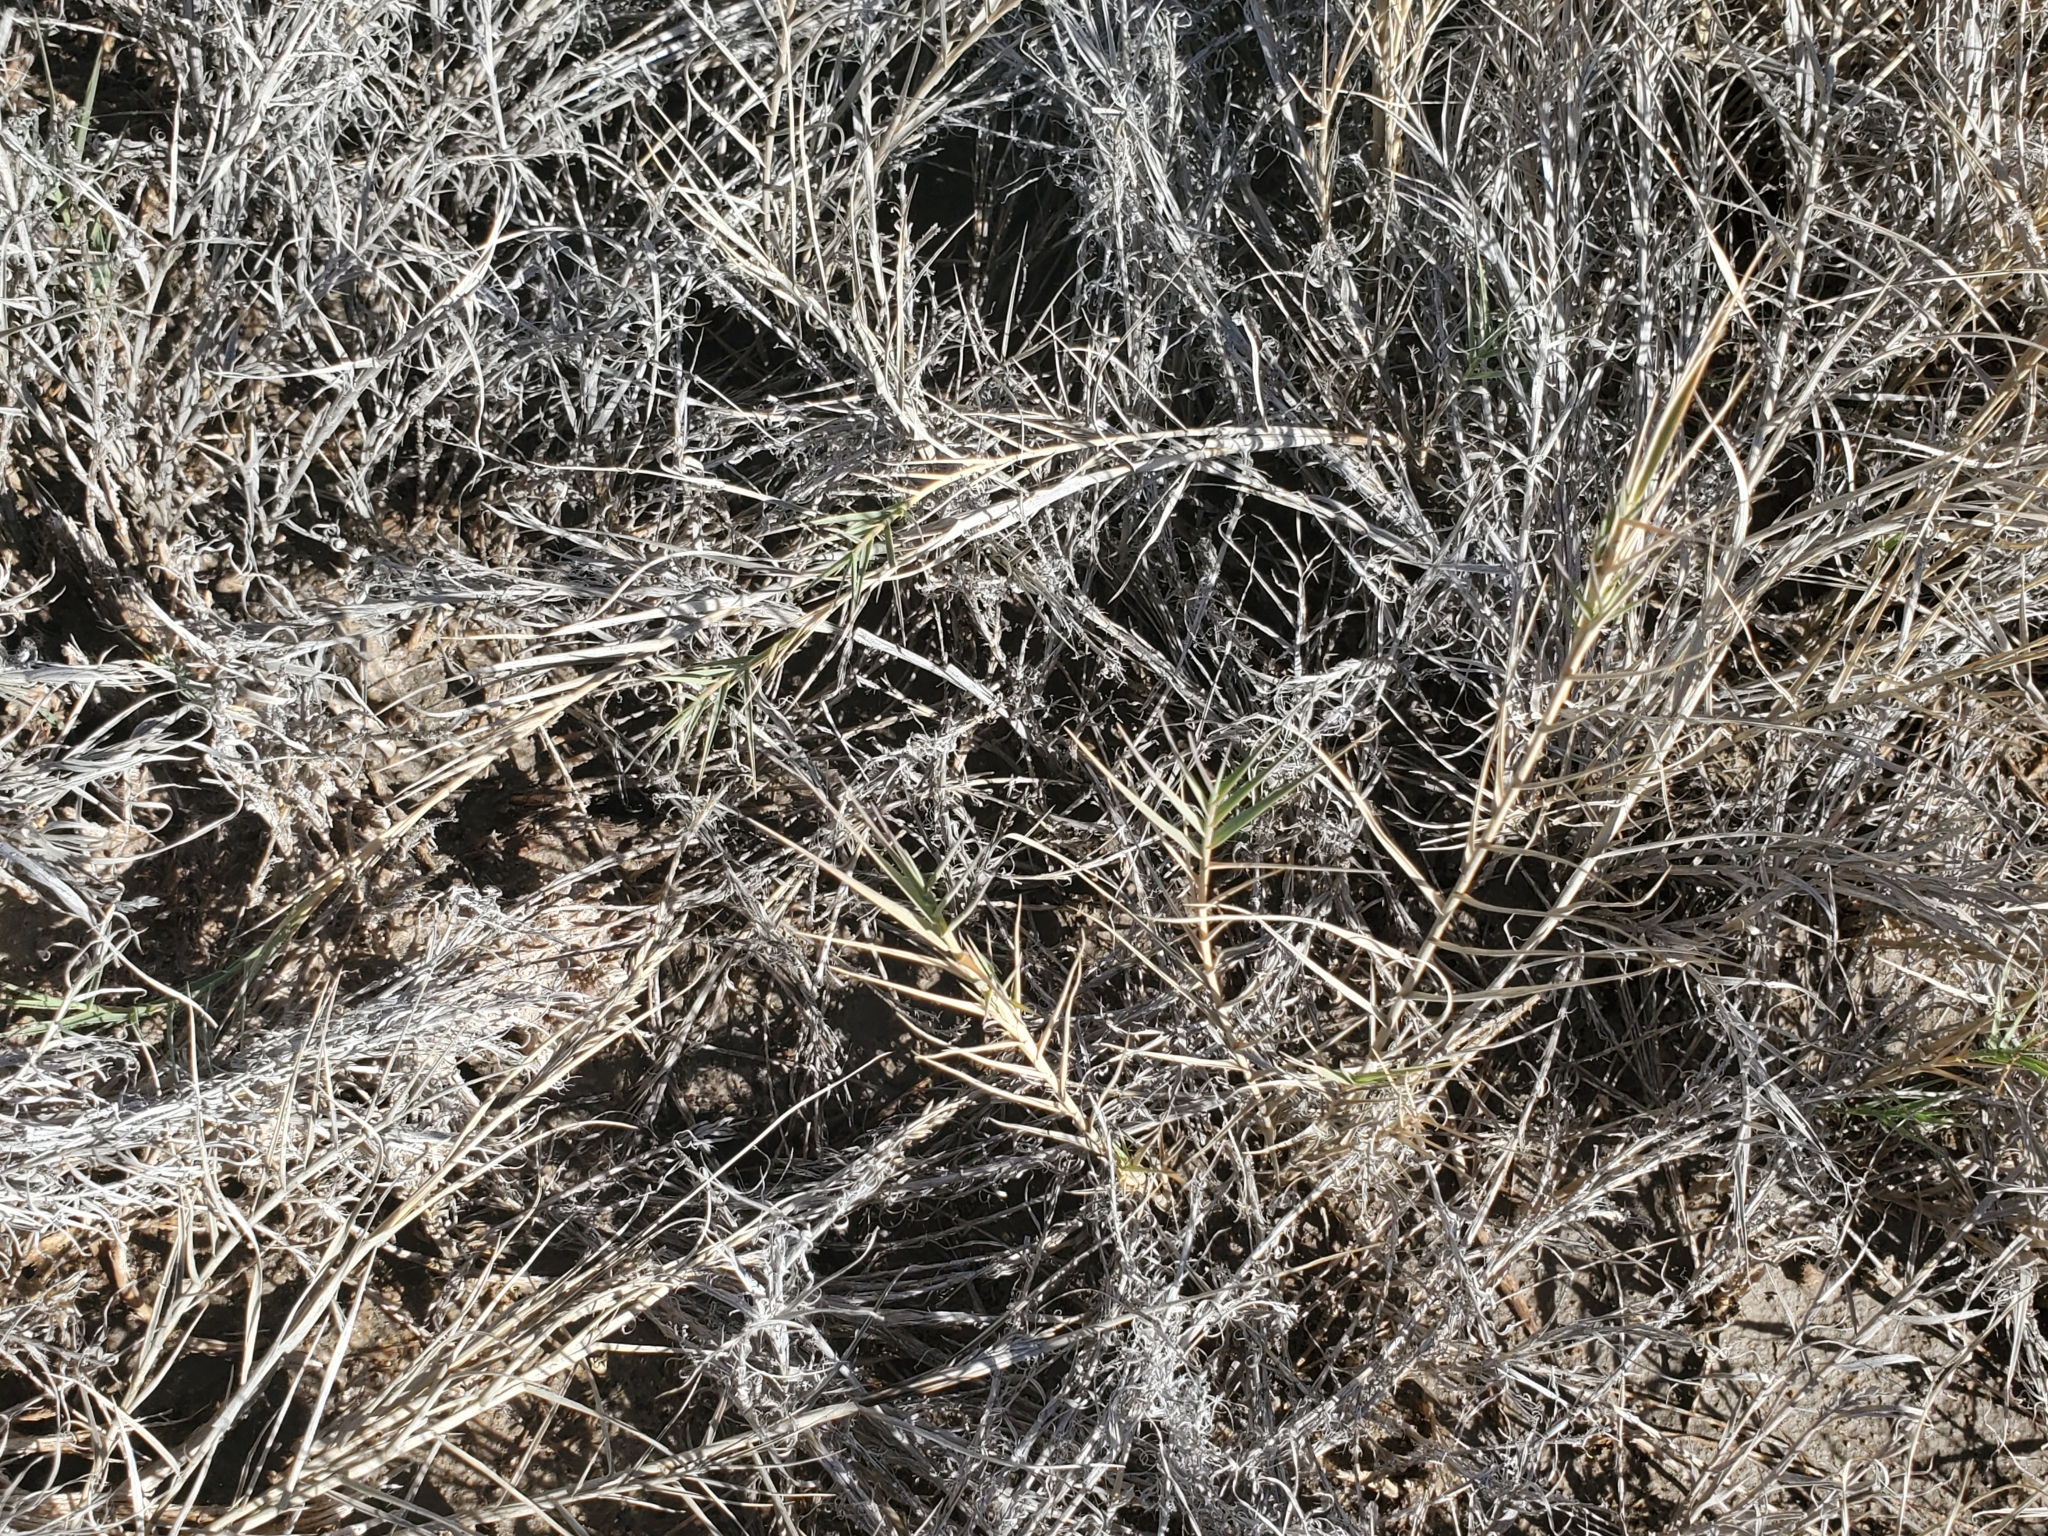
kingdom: Plantae
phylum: Tracheophyta
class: Liliopsida
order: Poales
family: Poaceae
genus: Distichlis
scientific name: Distichlis spicata
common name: Saltgrass
